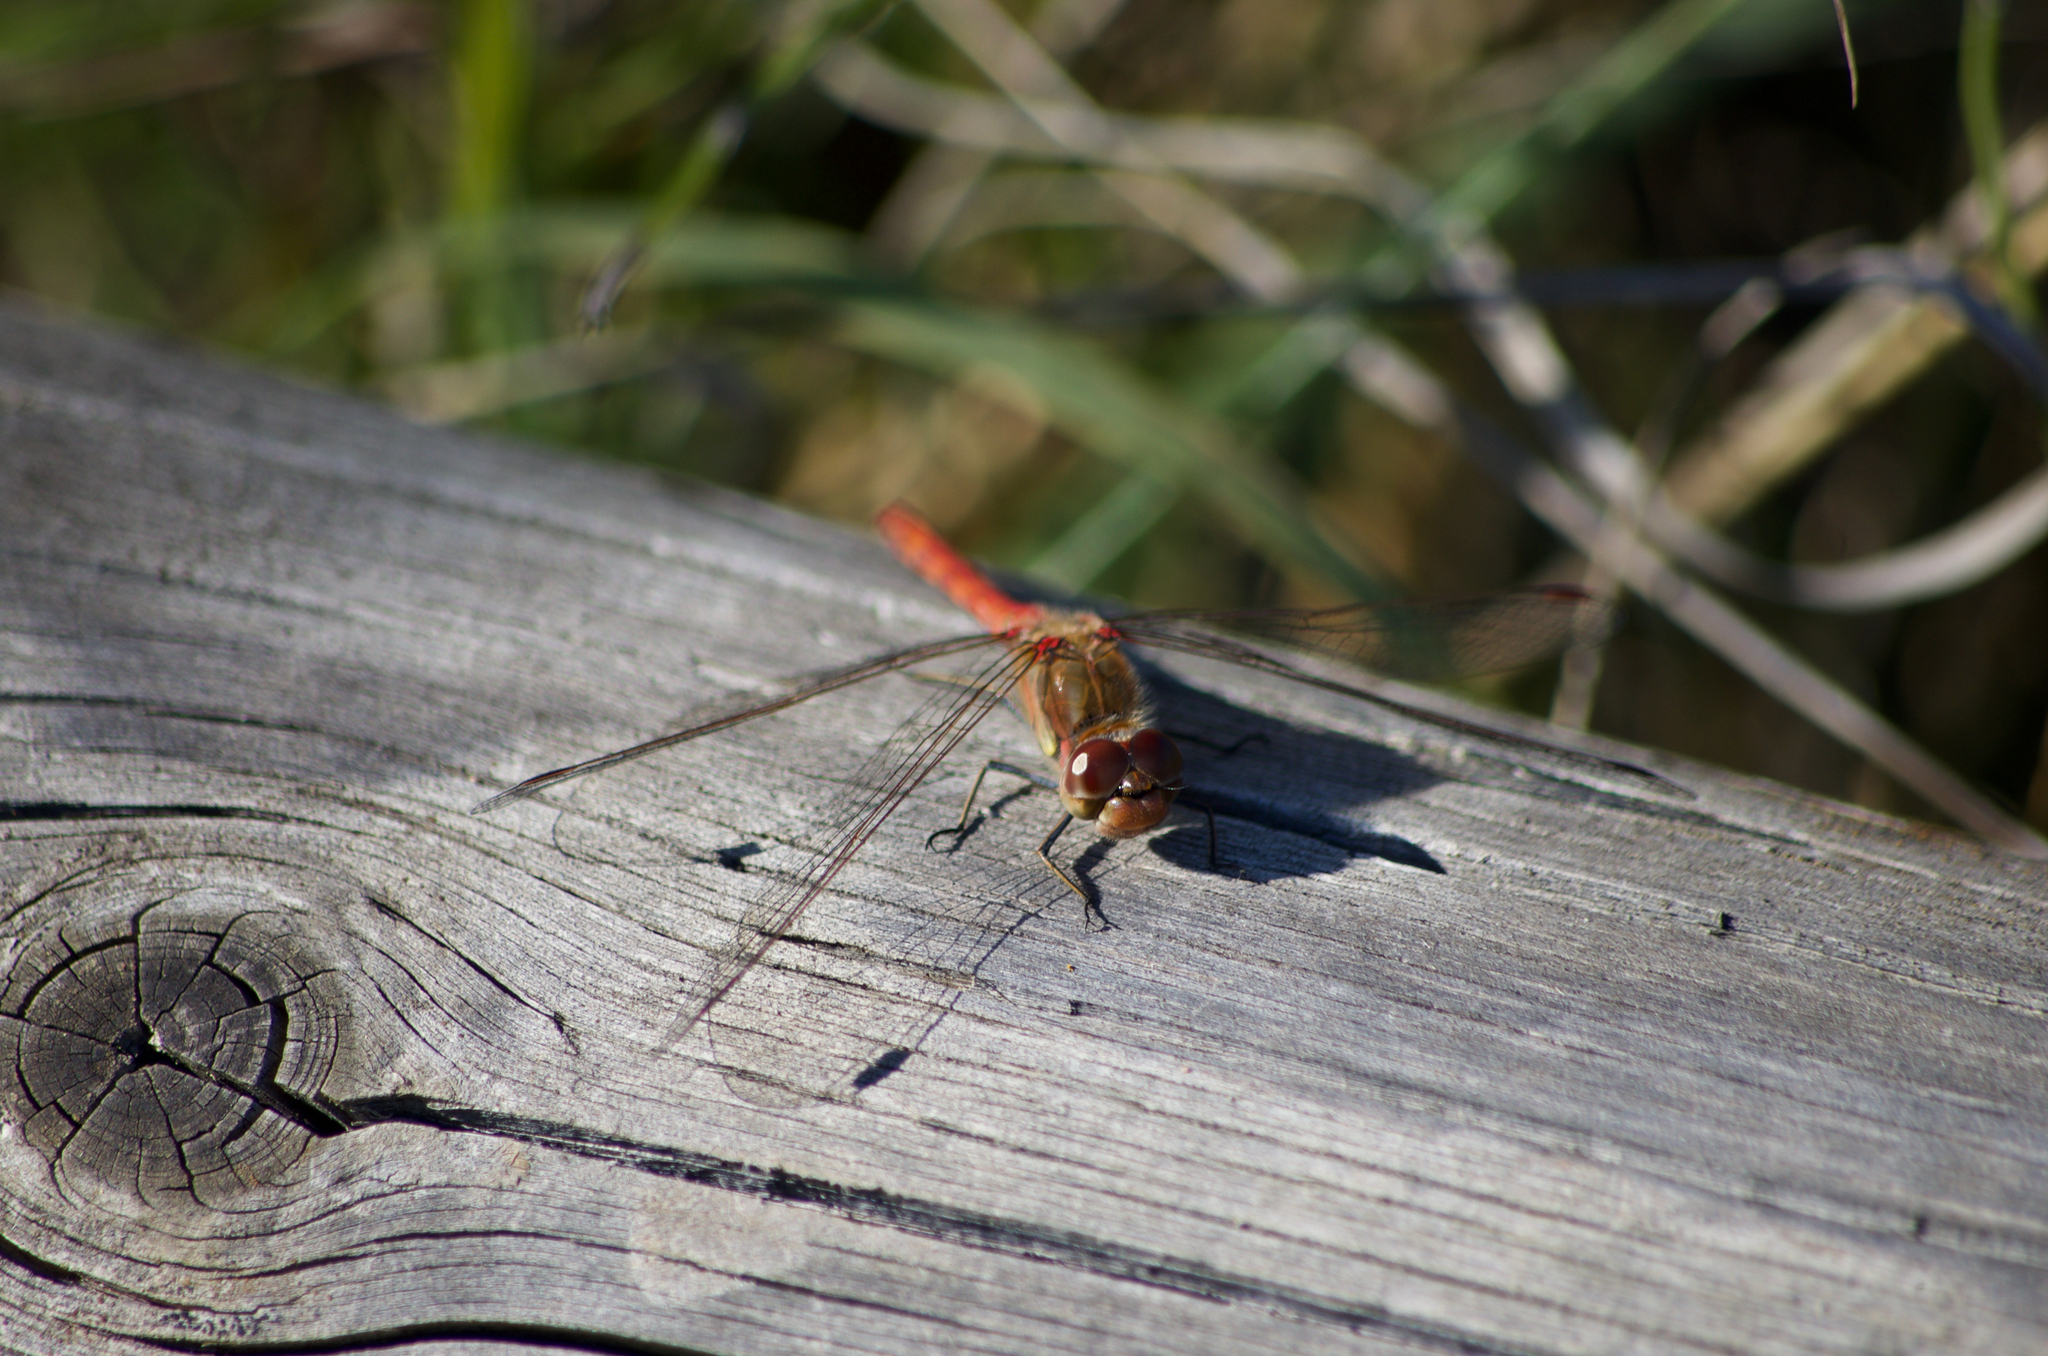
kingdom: Animalia
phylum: Arthropoda
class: Insecta
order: Odonata
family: Libellulidae
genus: Sympetrum
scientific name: Sympetrum striolatum
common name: Common darter
